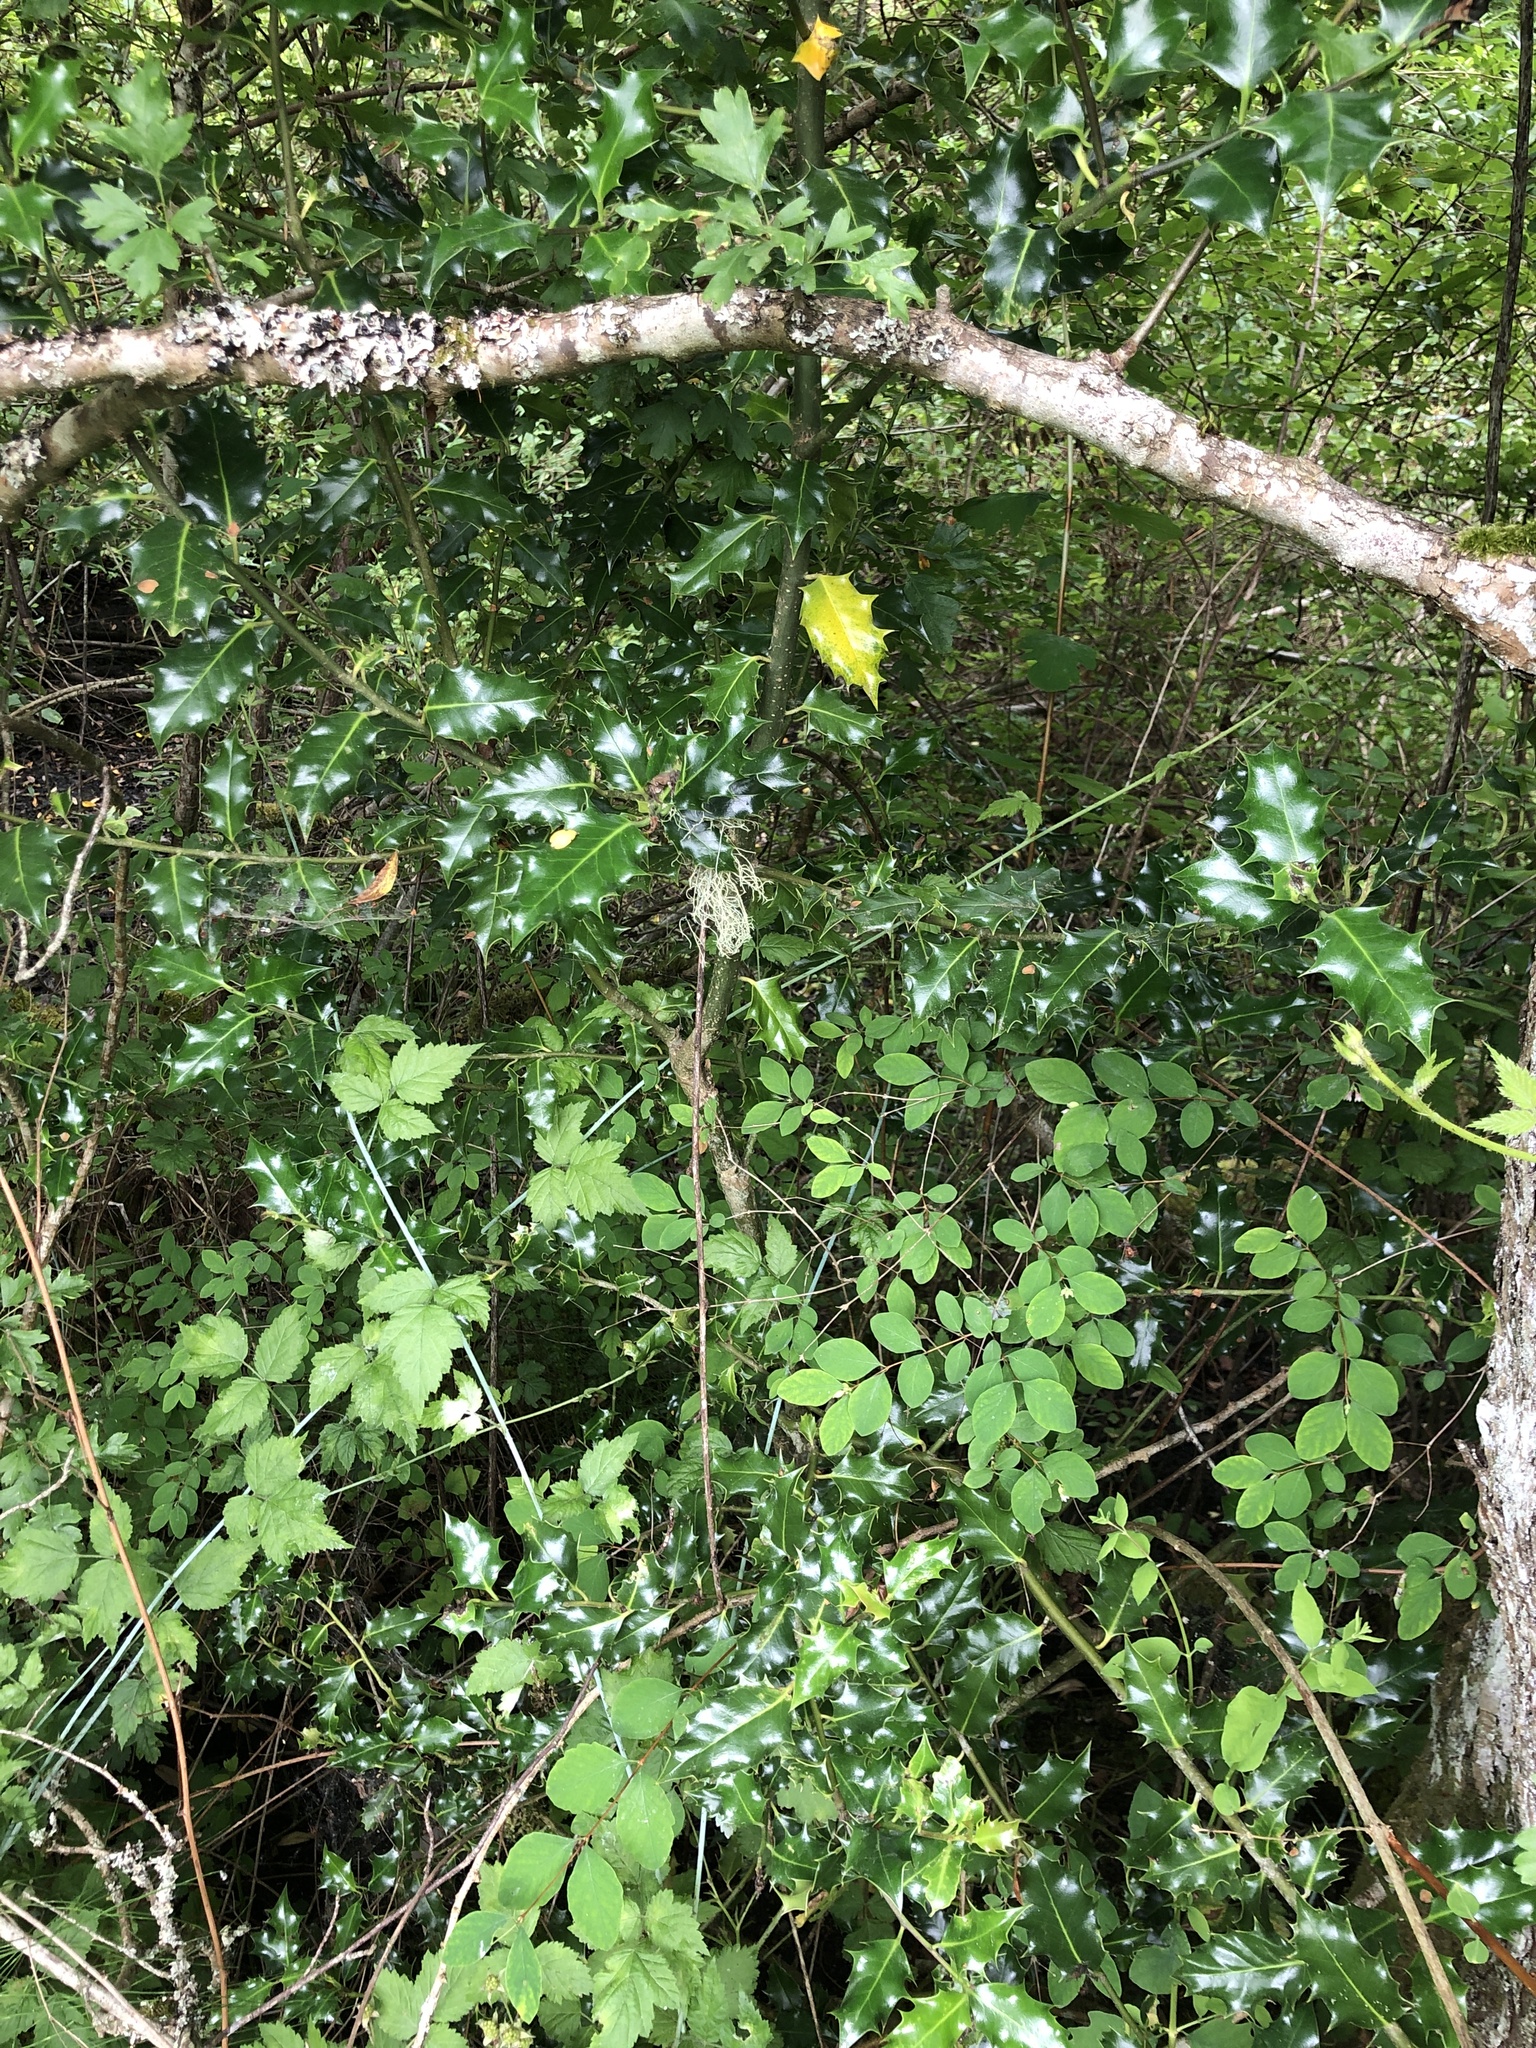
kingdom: Plantae
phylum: Tracheophyta
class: Magnoliopsida
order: Aquifoliales
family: Aquifoliaceae
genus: Ilex
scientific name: Ilex aquifolium
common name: English holly
